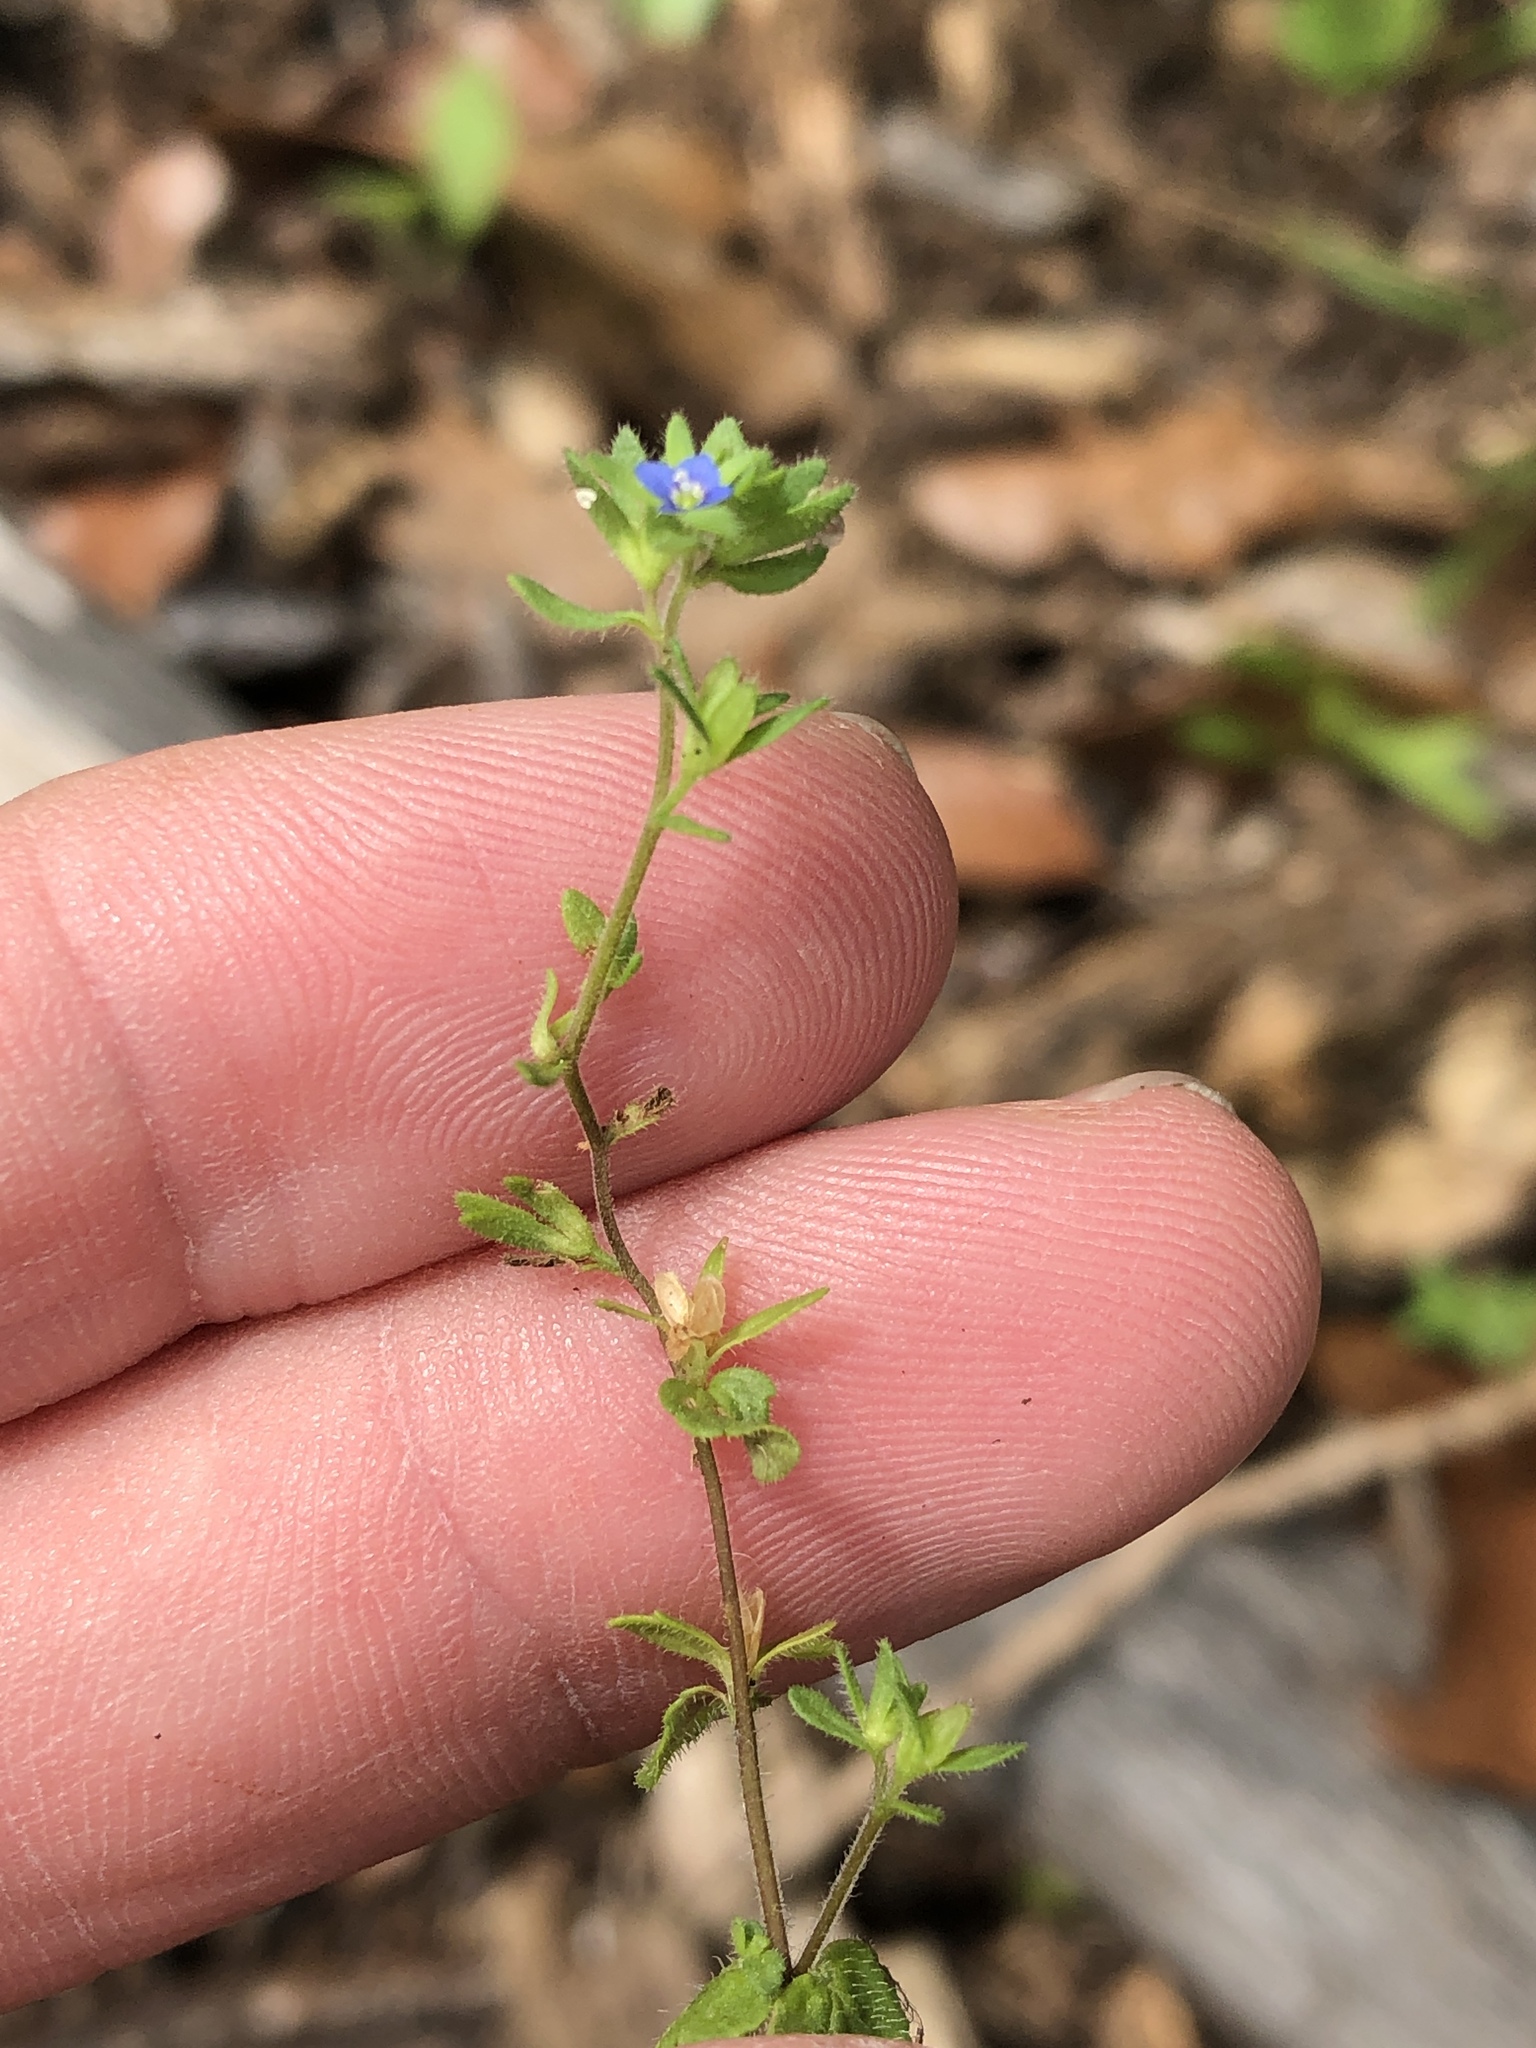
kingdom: Plantae
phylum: Tracheophyta
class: Magnoliopsida
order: Lamiales
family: Plantaginaceae
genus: Veronica
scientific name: Veronica arvensis
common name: Corn speedwell
